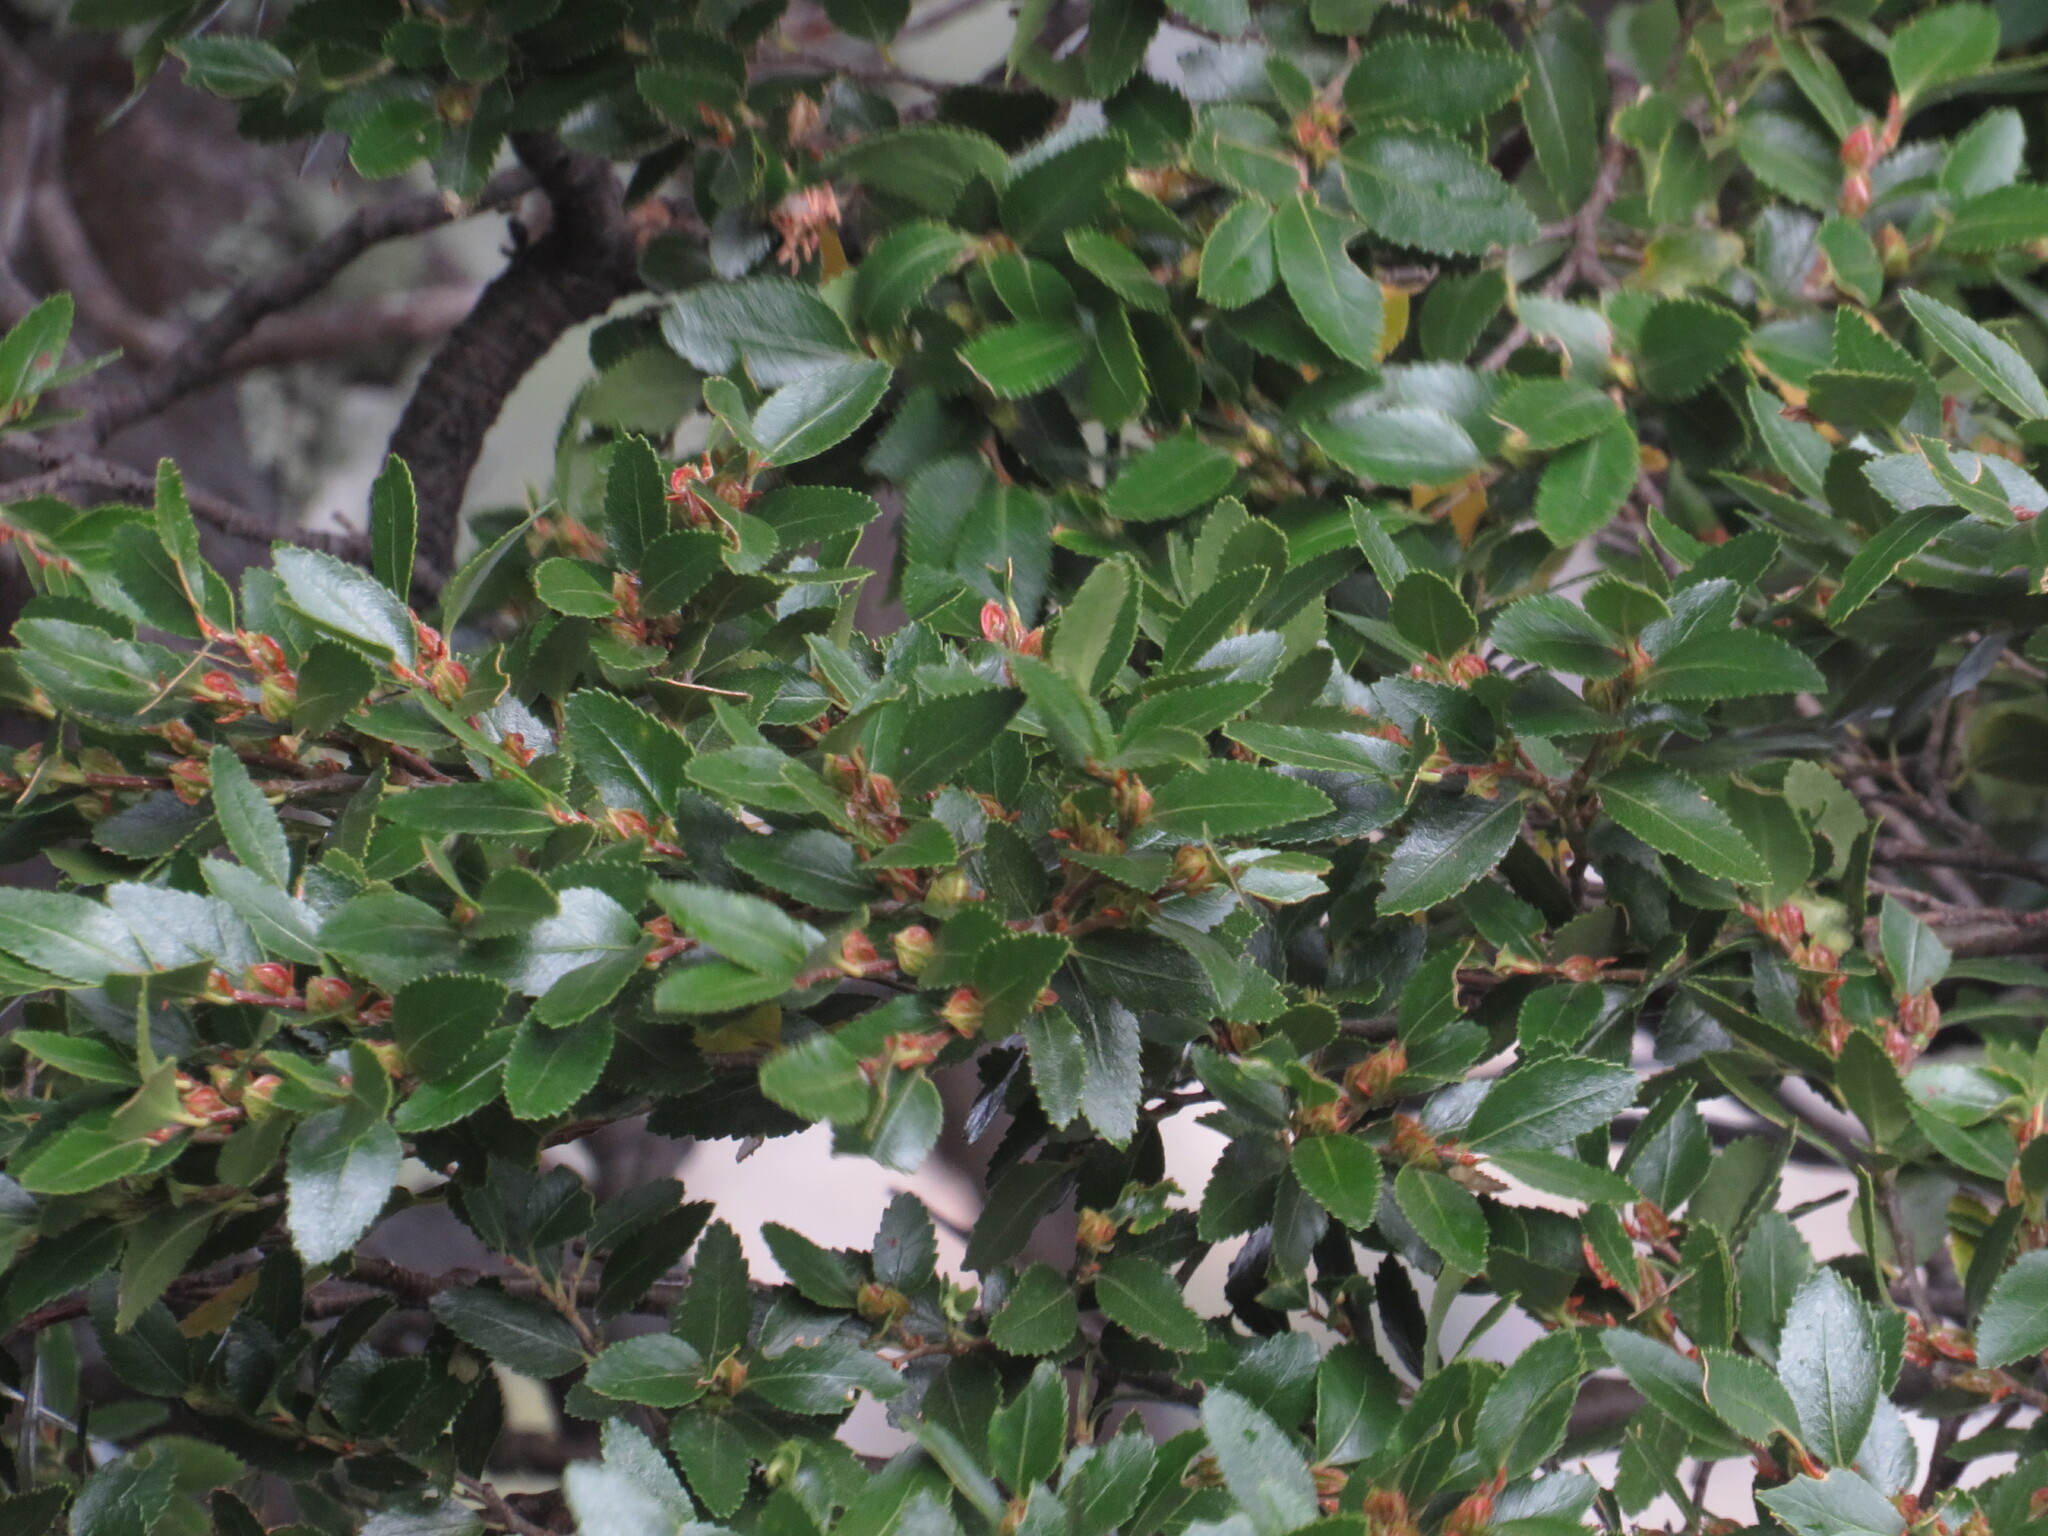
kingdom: Plantae
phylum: Tracheophyta
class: Magnoliopsida
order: Fagales
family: Nothofagaceae
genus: Nothofagus
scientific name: Nothofagus dombeyi
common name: Coigue
